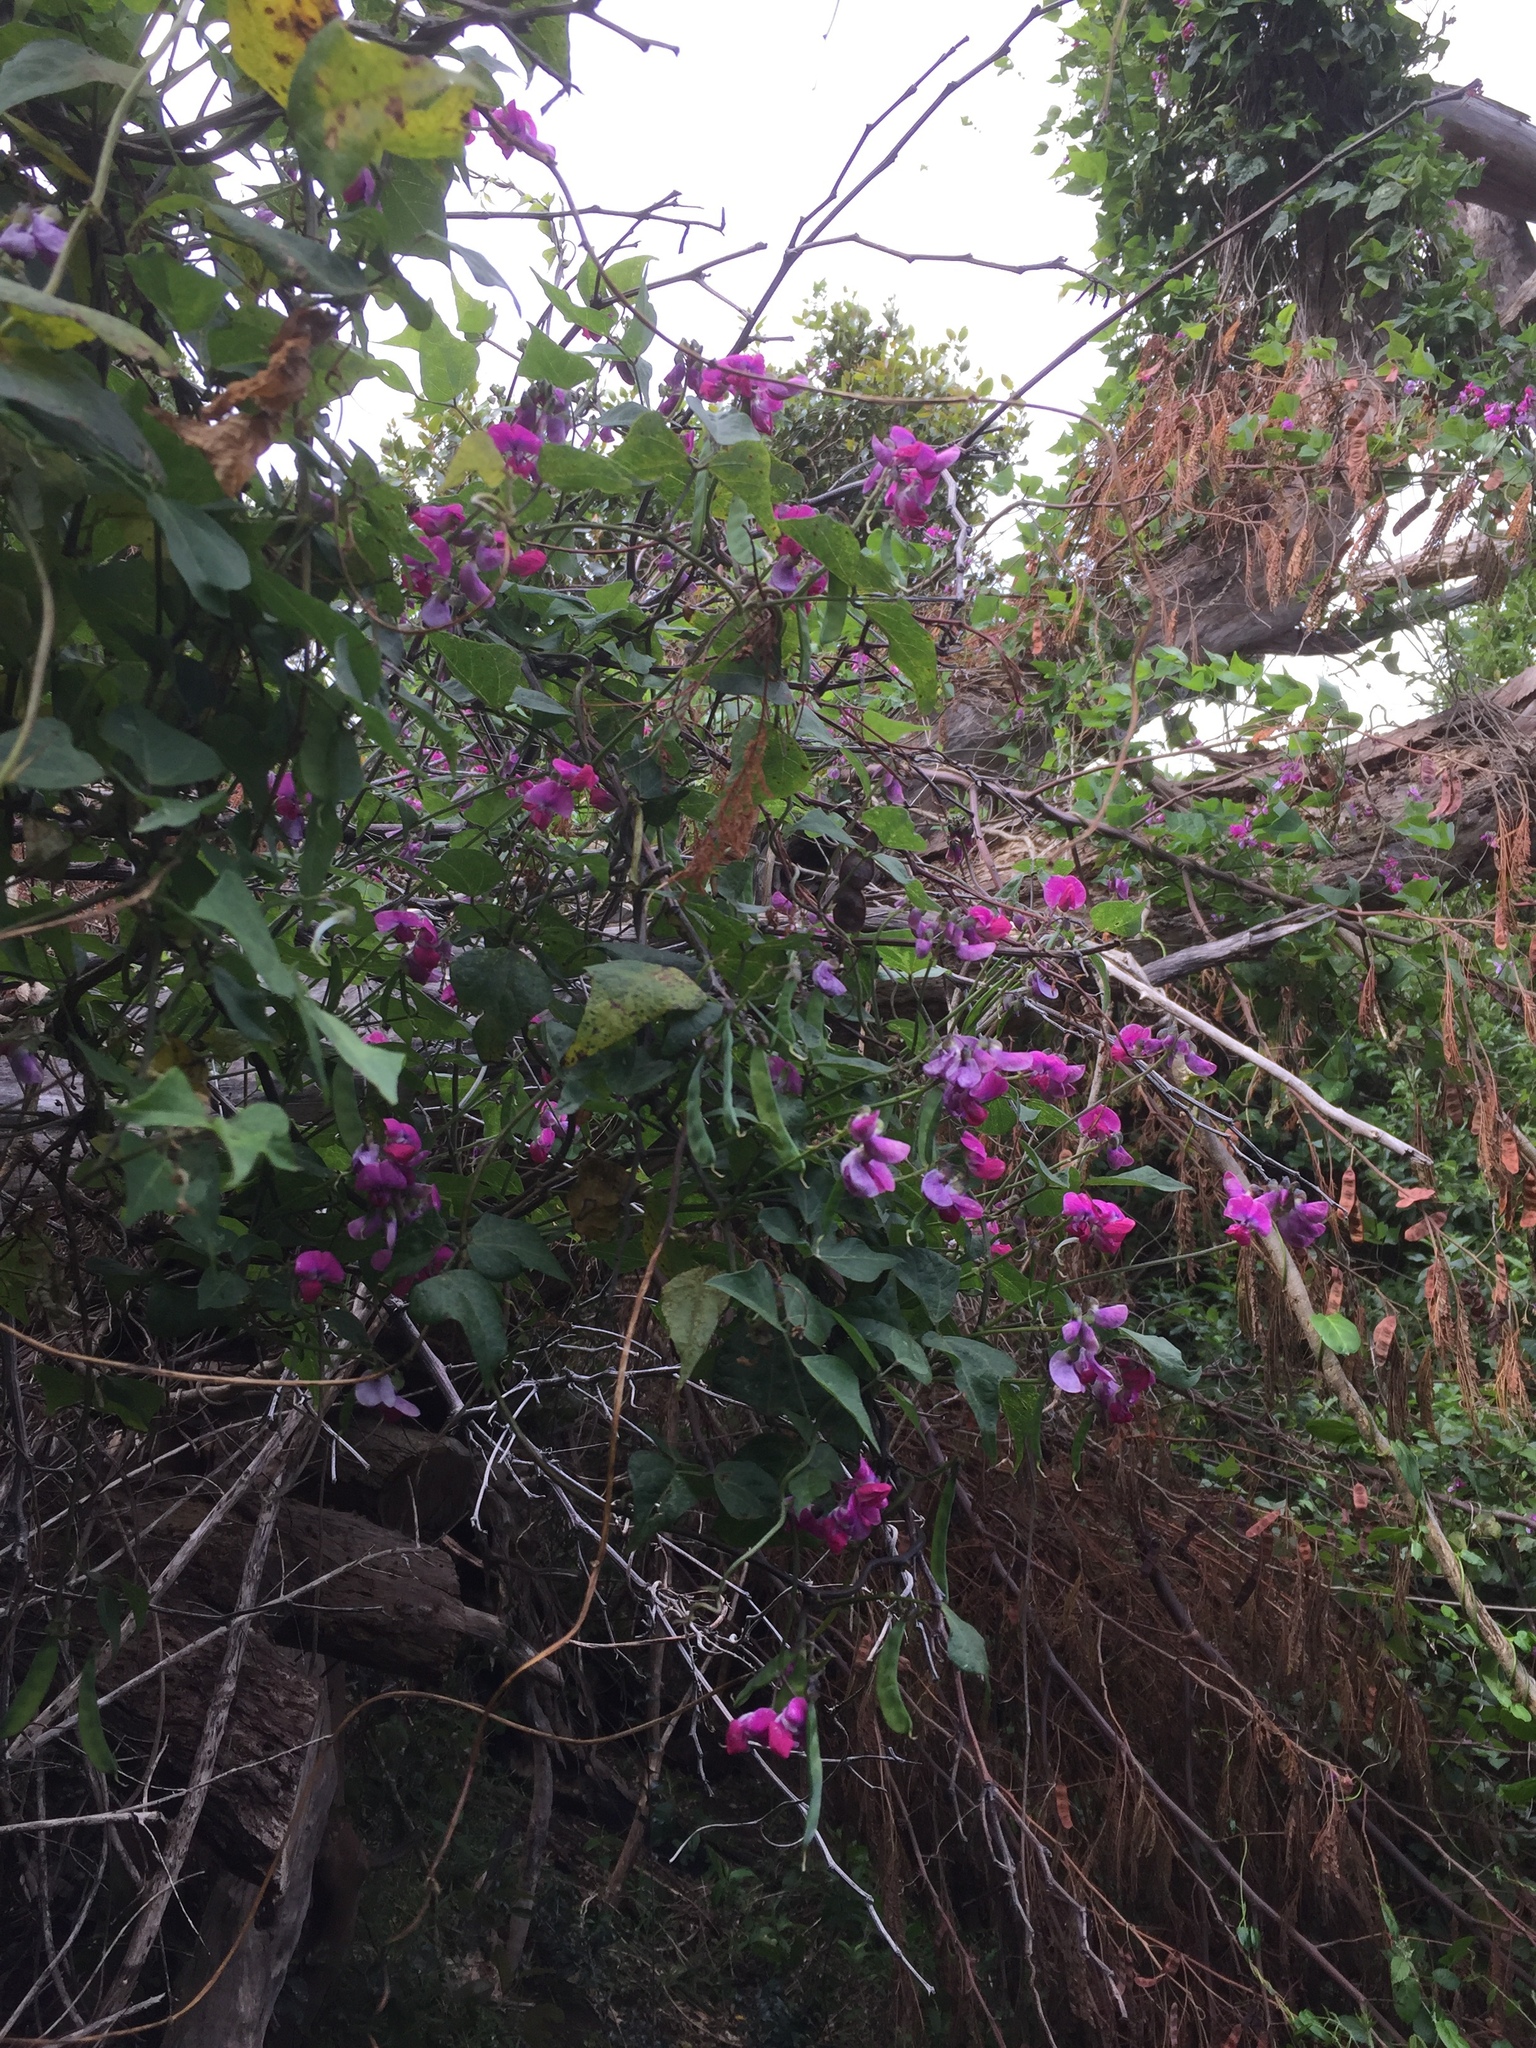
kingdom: Plantae
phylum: Tracheophyta
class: Magnoliopsida
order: Fabales
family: Fabaceae
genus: Dipogon
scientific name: Dipogon lignosus
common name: Okie bean
